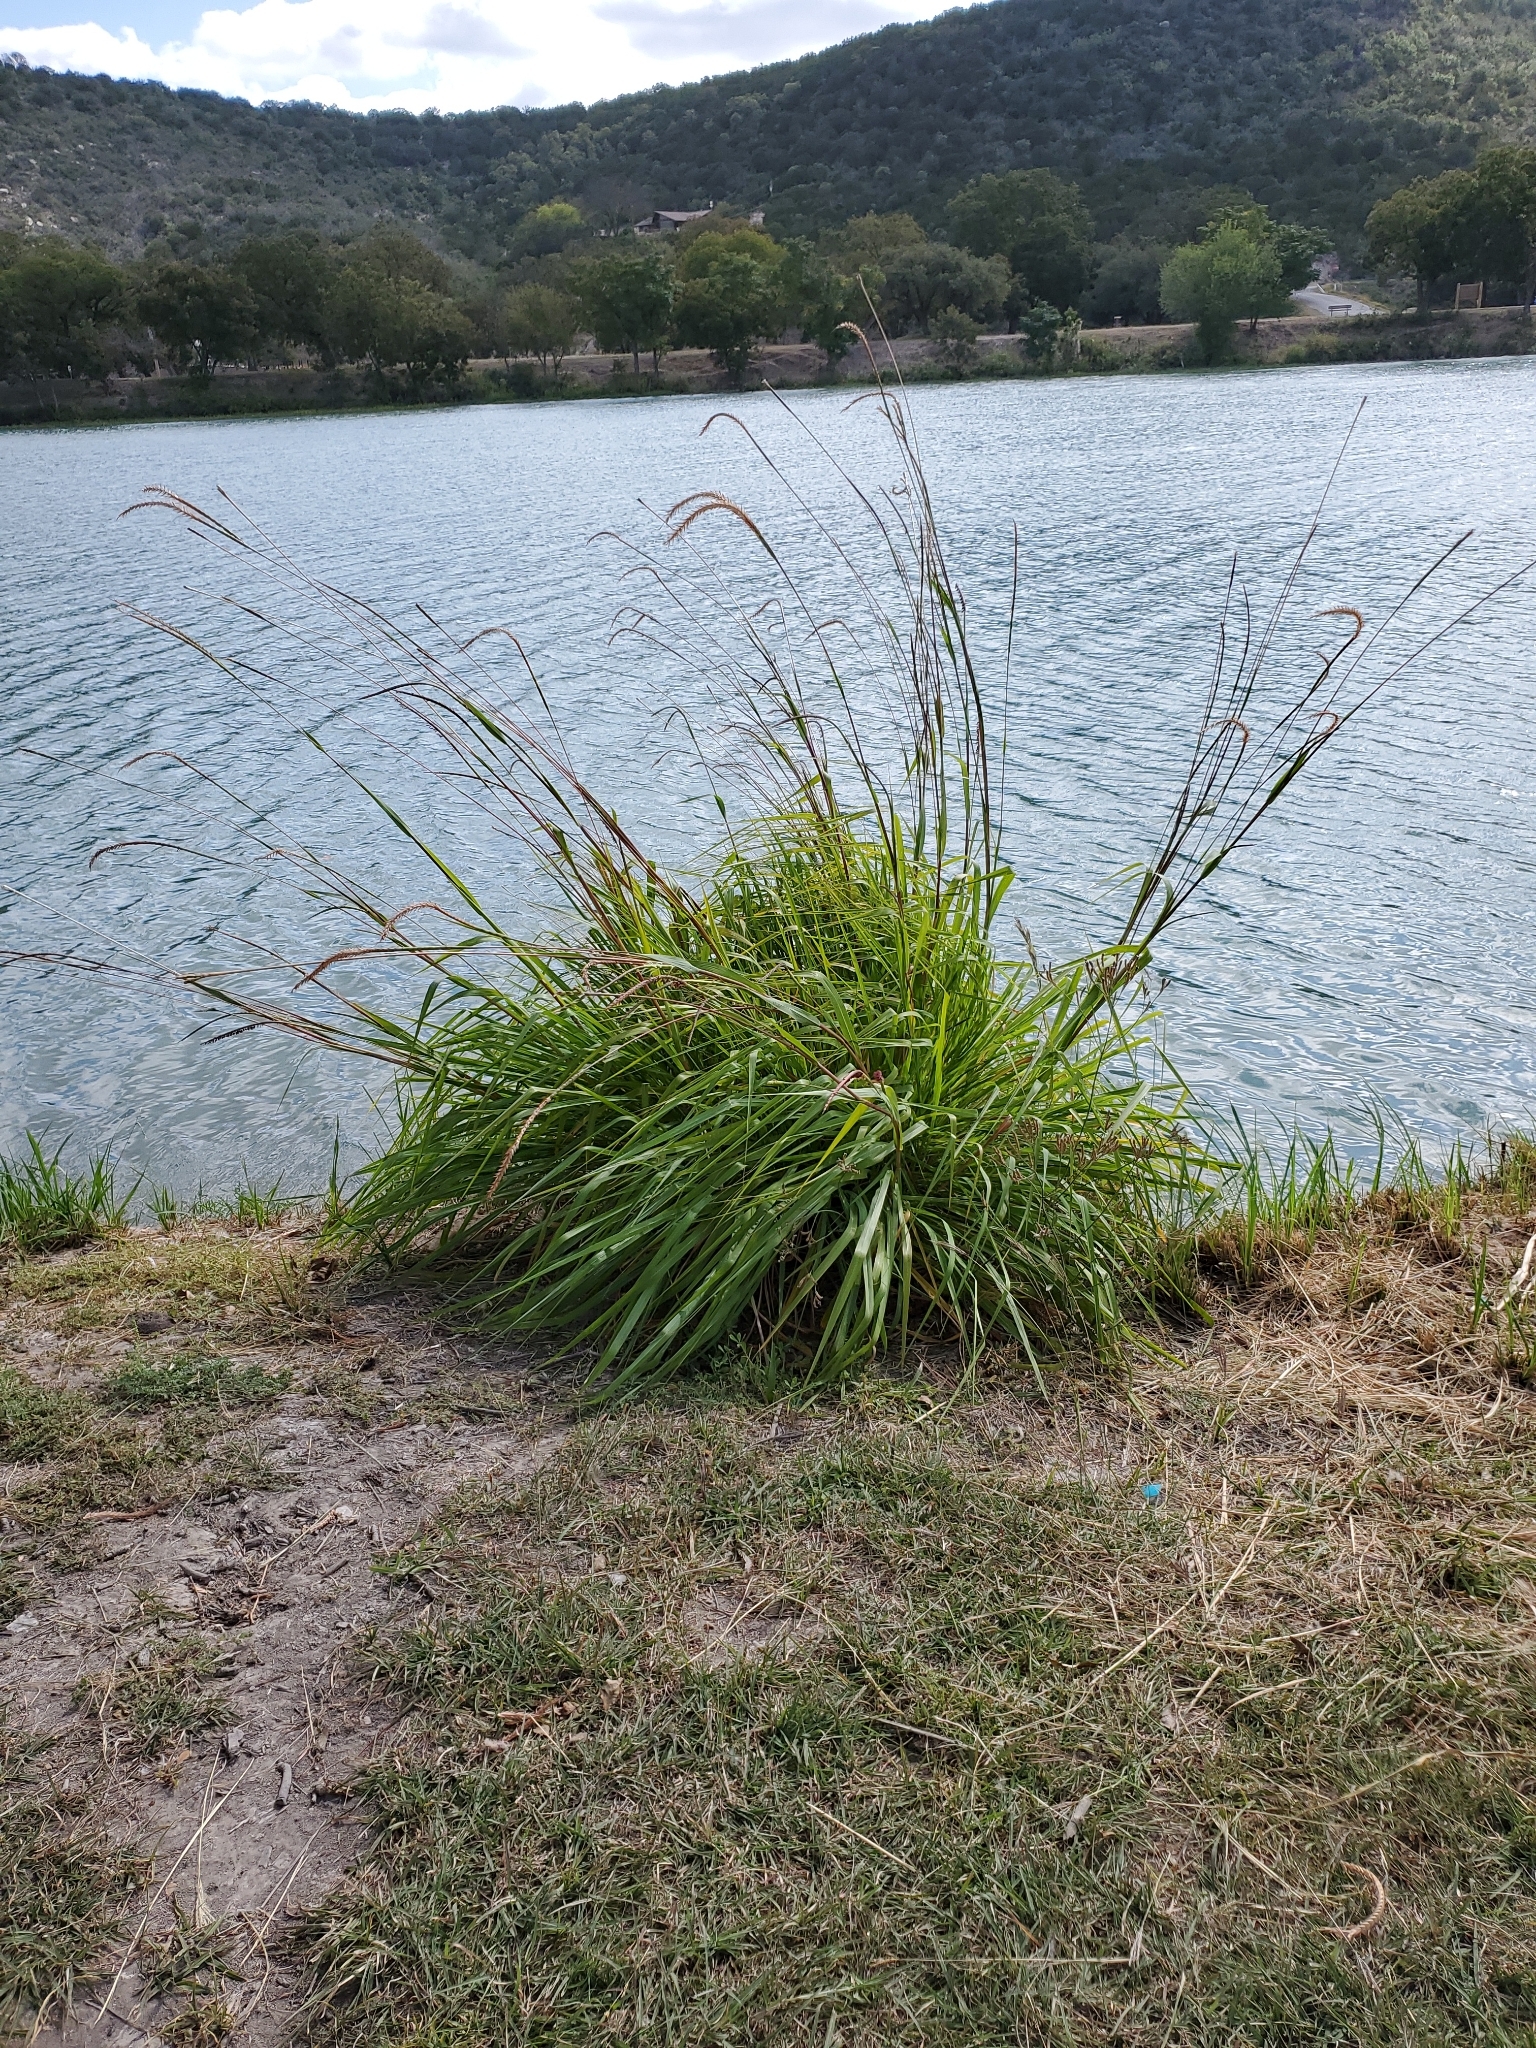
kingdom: Plantae
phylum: Tracheophyta
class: Liliopsida
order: Poales
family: Poaceae
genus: Tripsacum
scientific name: Tripsacum dactyloides
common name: Buffalo-grass
